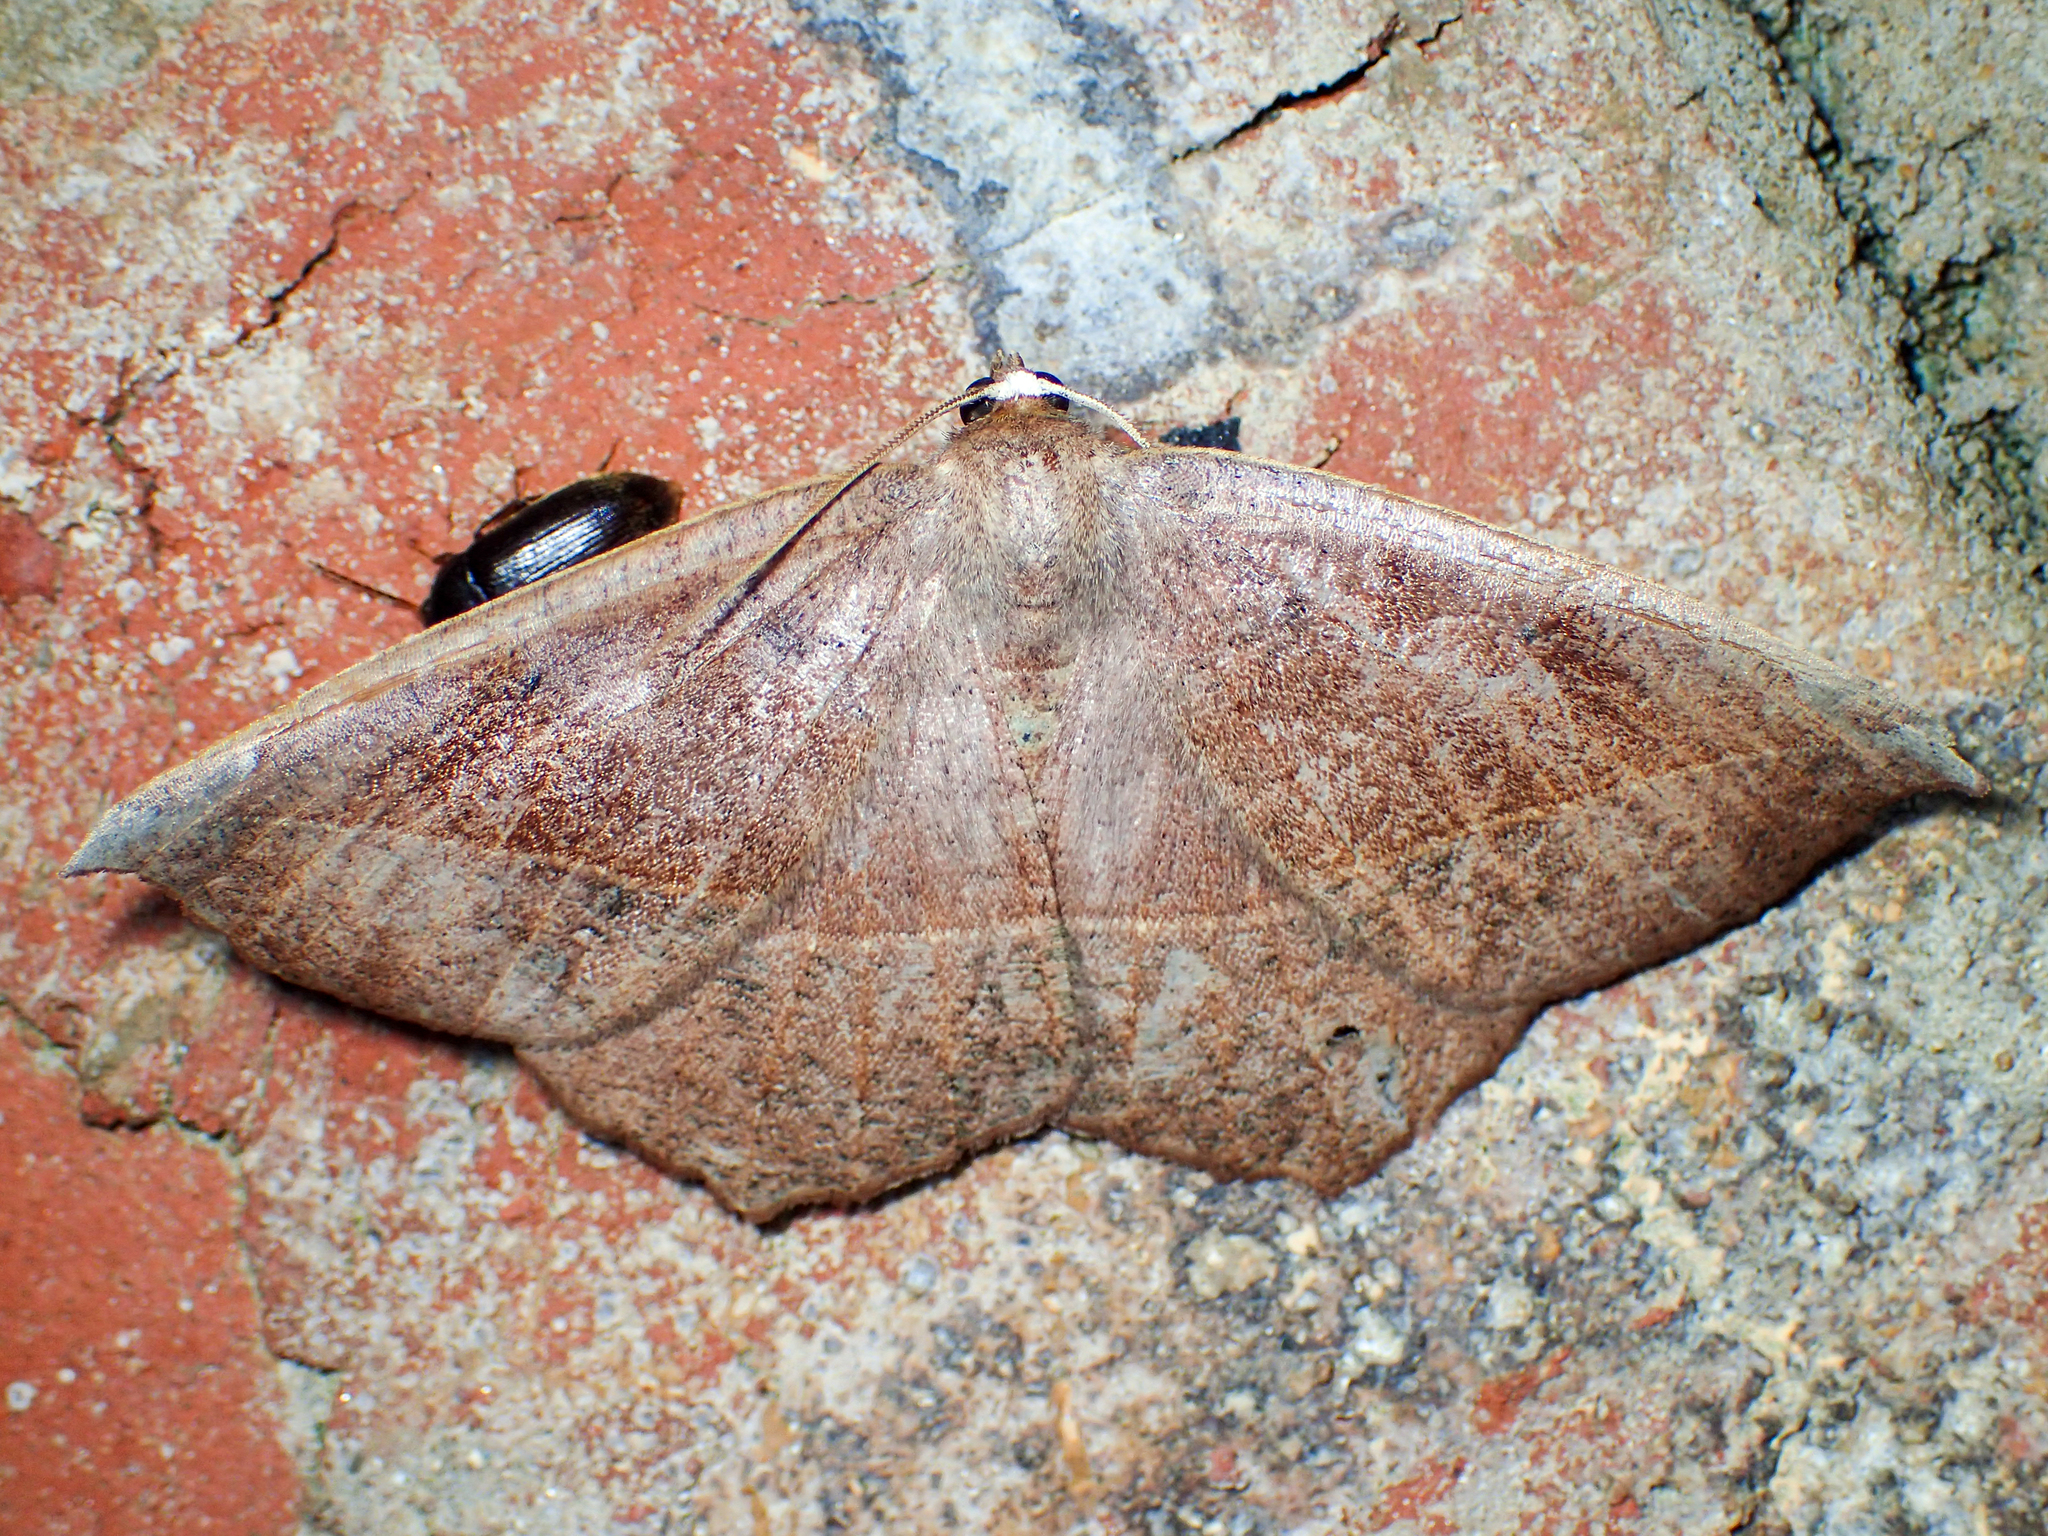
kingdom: Animalia
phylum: Arthropoda
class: Insecta
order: Lepidoptera
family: Geometridae
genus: Eutrapela
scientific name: Eutrapela clemataria
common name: Curved-toothed geometer
